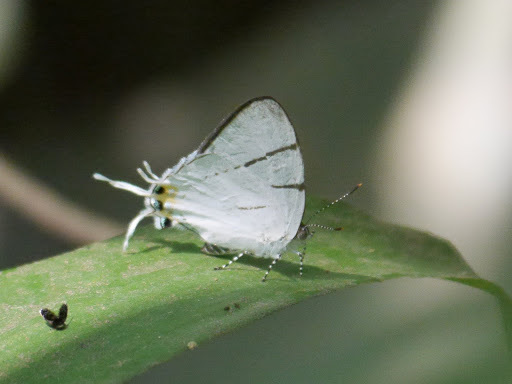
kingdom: Animalia
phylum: Arthropoda
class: Insecta
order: Lepidoptera
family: Lycaenidae
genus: Syrmoptera
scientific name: Syrmoptera
